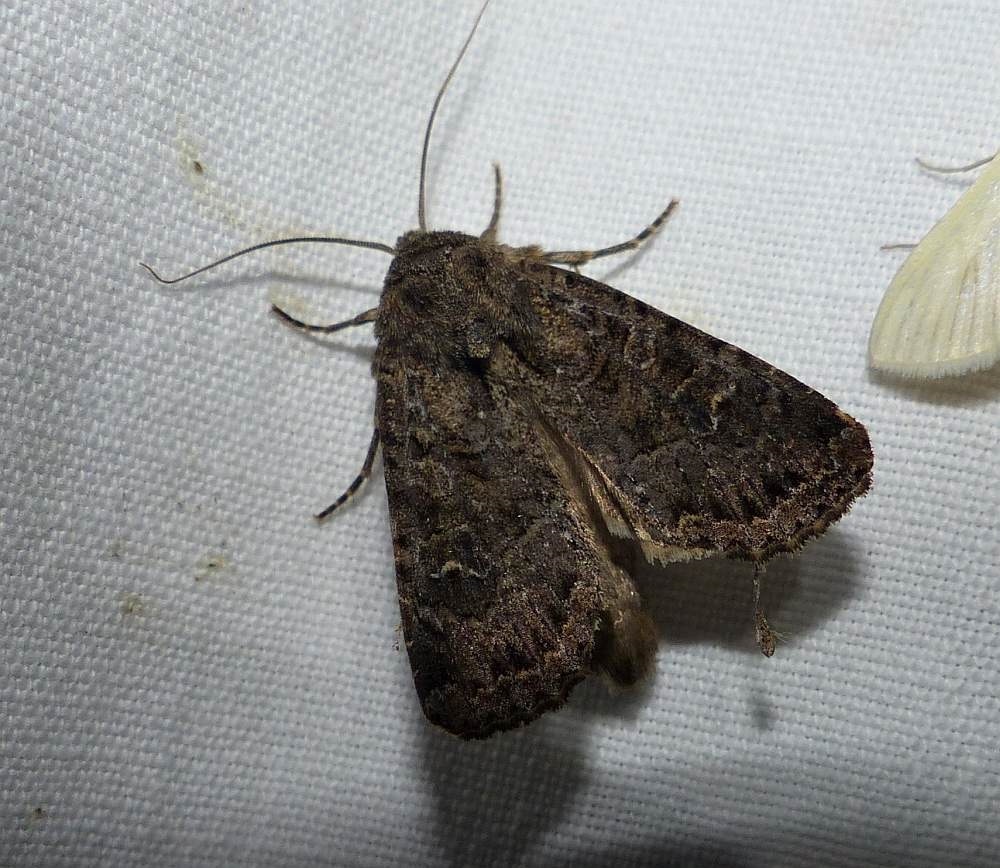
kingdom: Animalia
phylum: Arthropoda
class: Insecta
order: Lepidoptera
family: Noctuidae
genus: Apamea
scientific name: Apamea devastator
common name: Glassy cutworm
